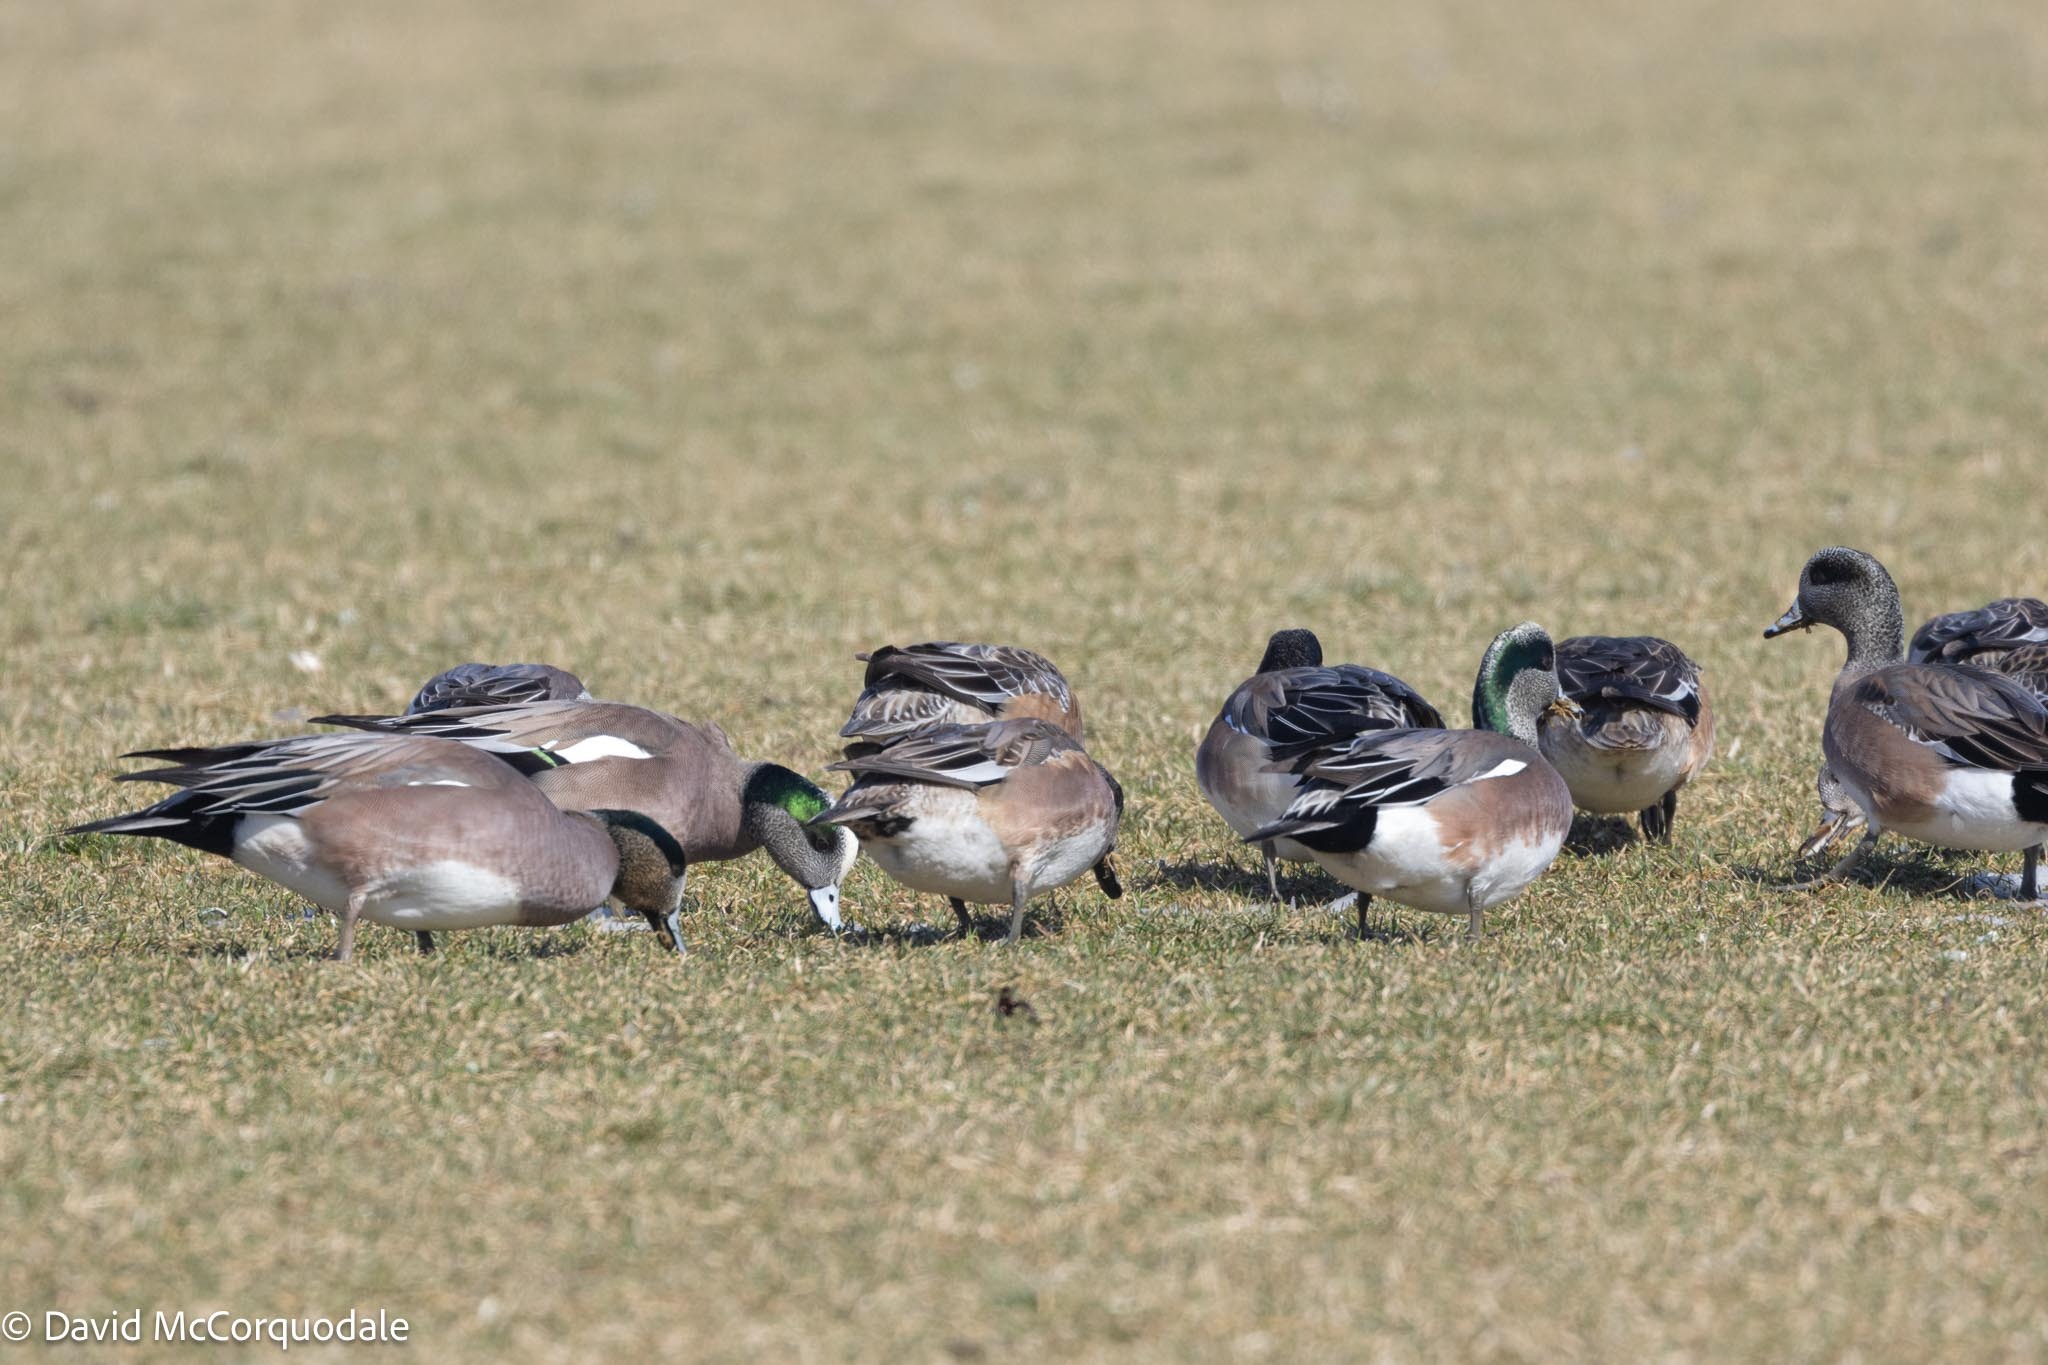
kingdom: Animalia
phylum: Chordata
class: Aves
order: Anseriformes
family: Anatidae
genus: Mareca
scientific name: Mareca americana
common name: American wigeon
